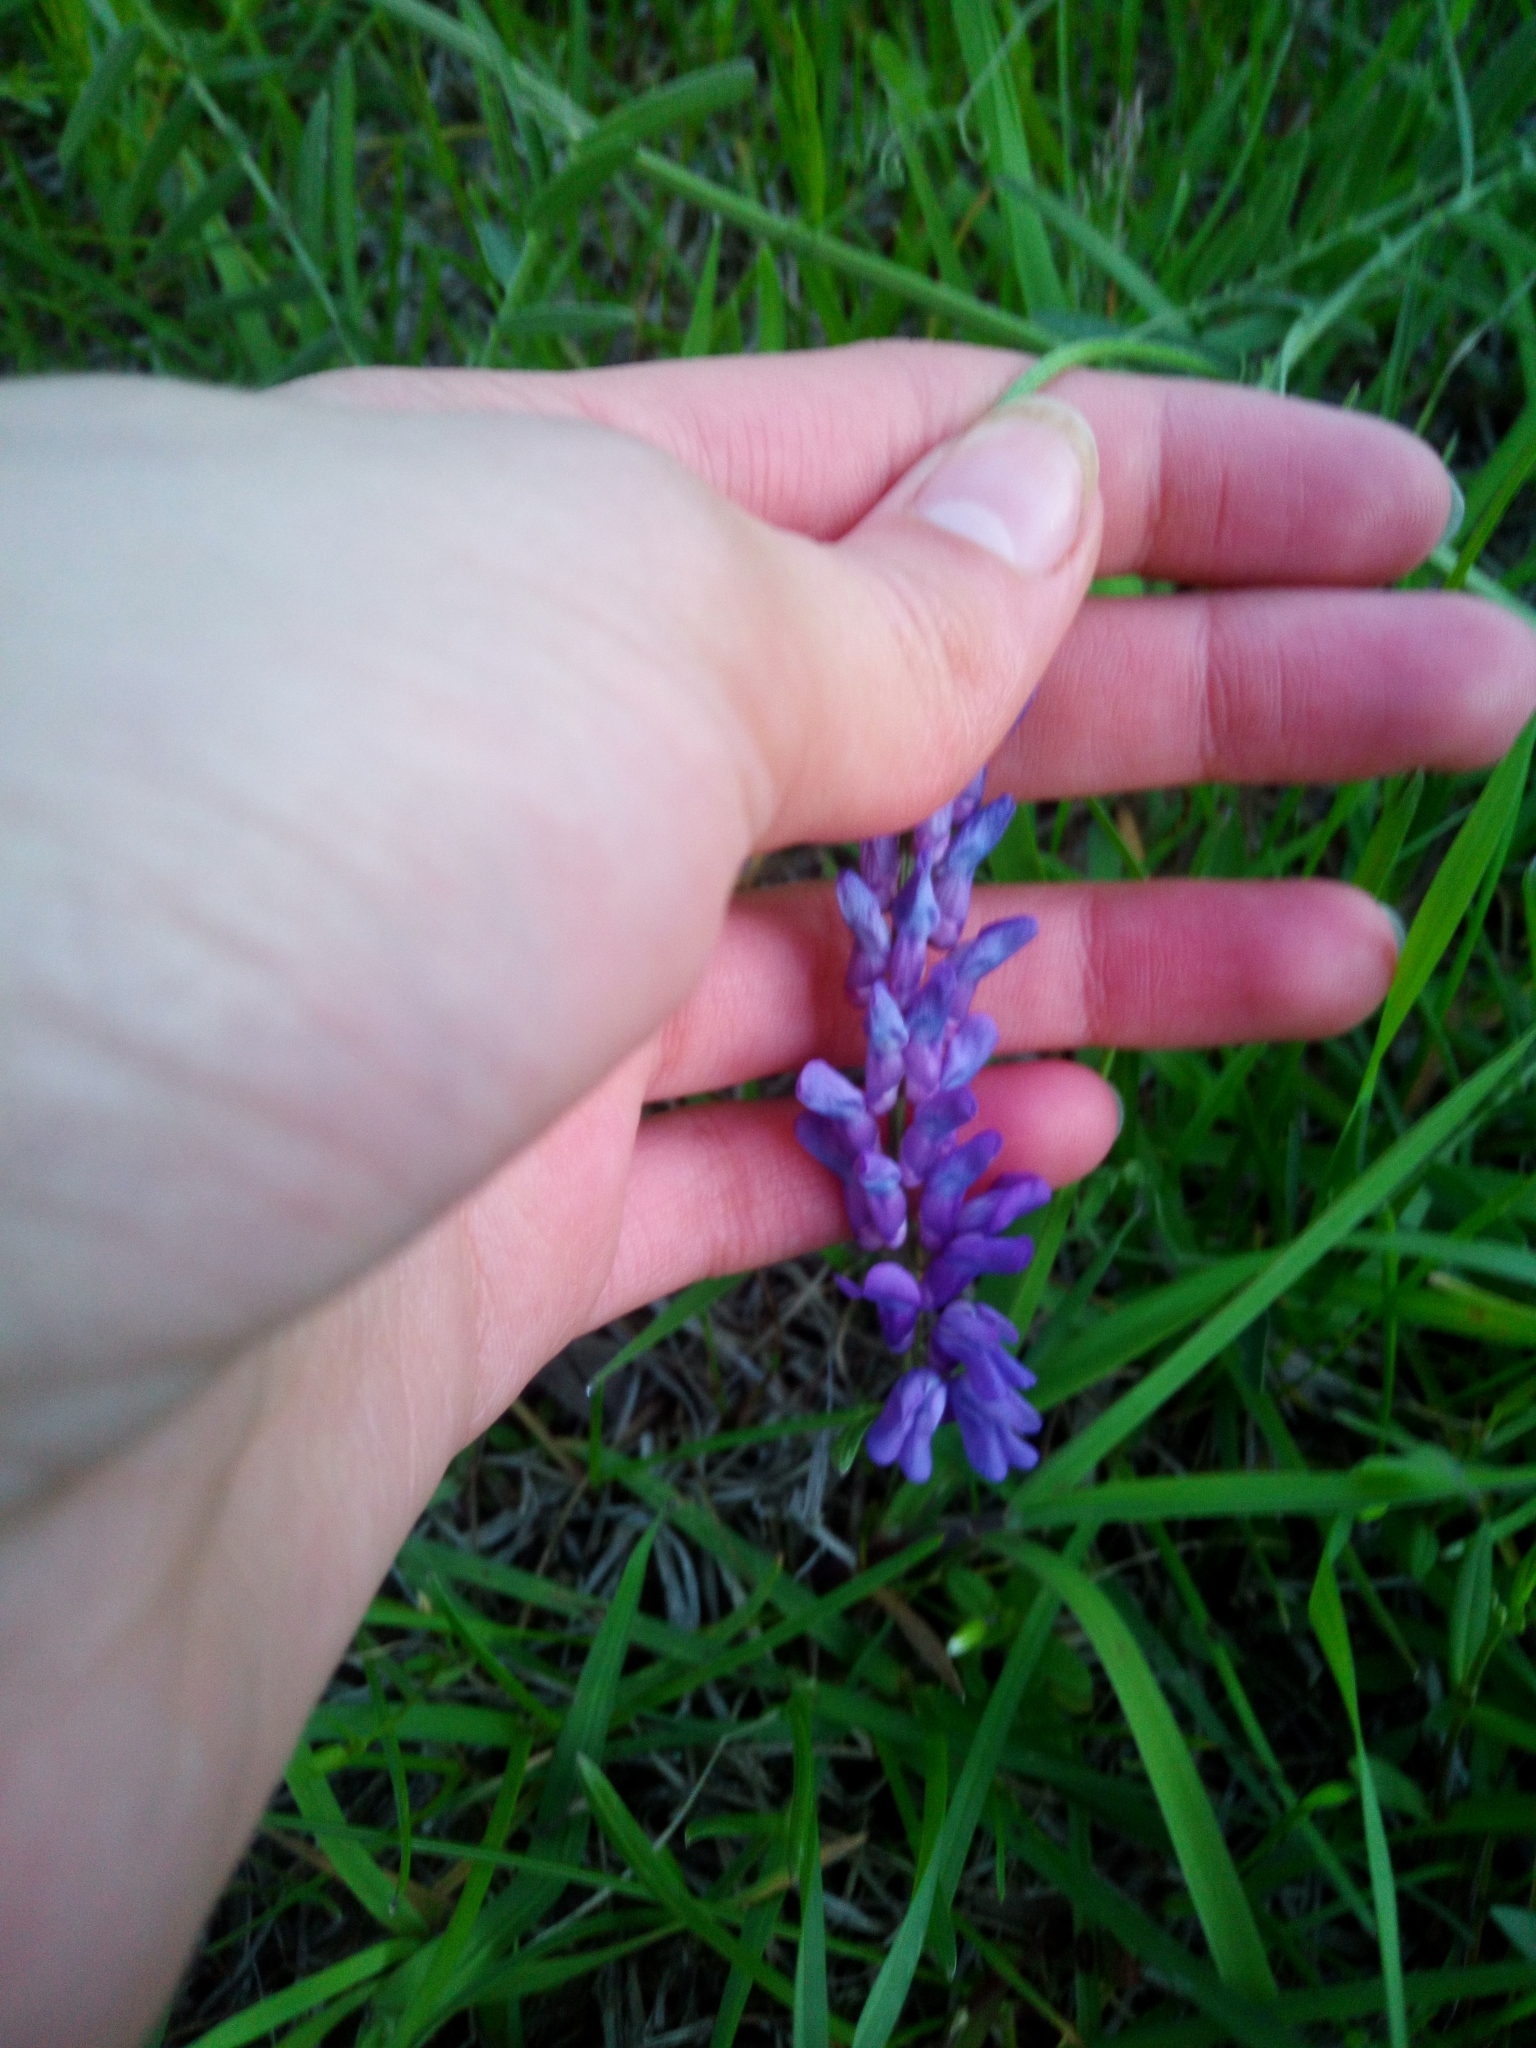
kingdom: Plantae
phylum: Tracheophyta
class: Magnoliopsida
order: Fabales
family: Fabaceae
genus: Vicia
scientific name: Vicia cracca
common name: Bird vetch
